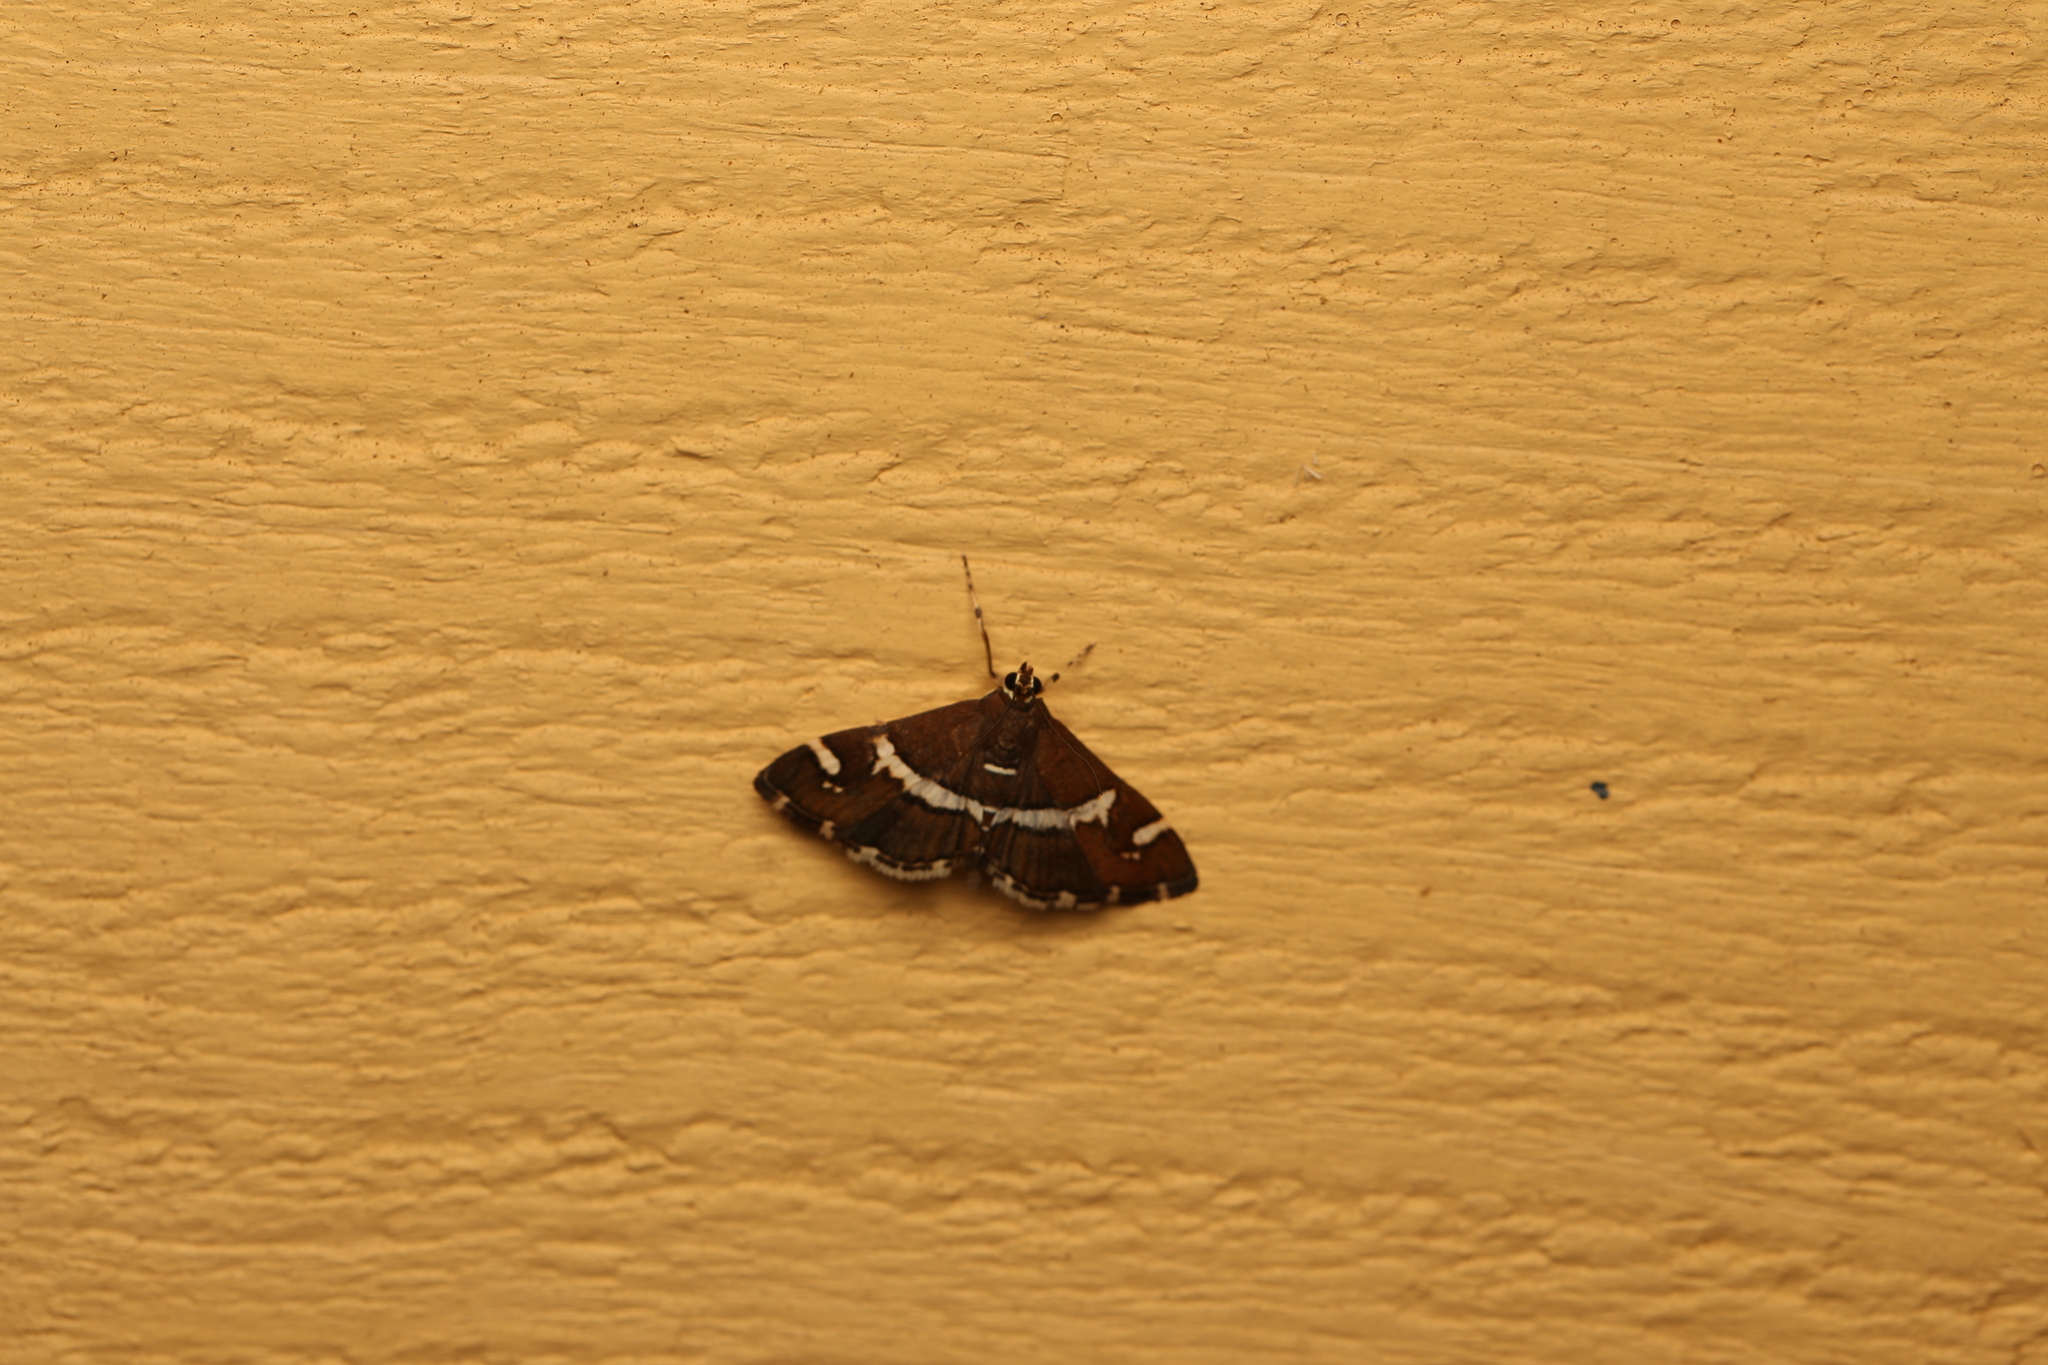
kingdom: Animalia
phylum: Arthropoda
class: Insecta
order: Lepidoptera
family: Crambidae
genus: Spoladea
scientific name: Spoladea recurvalis
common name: Beet webworm moth
